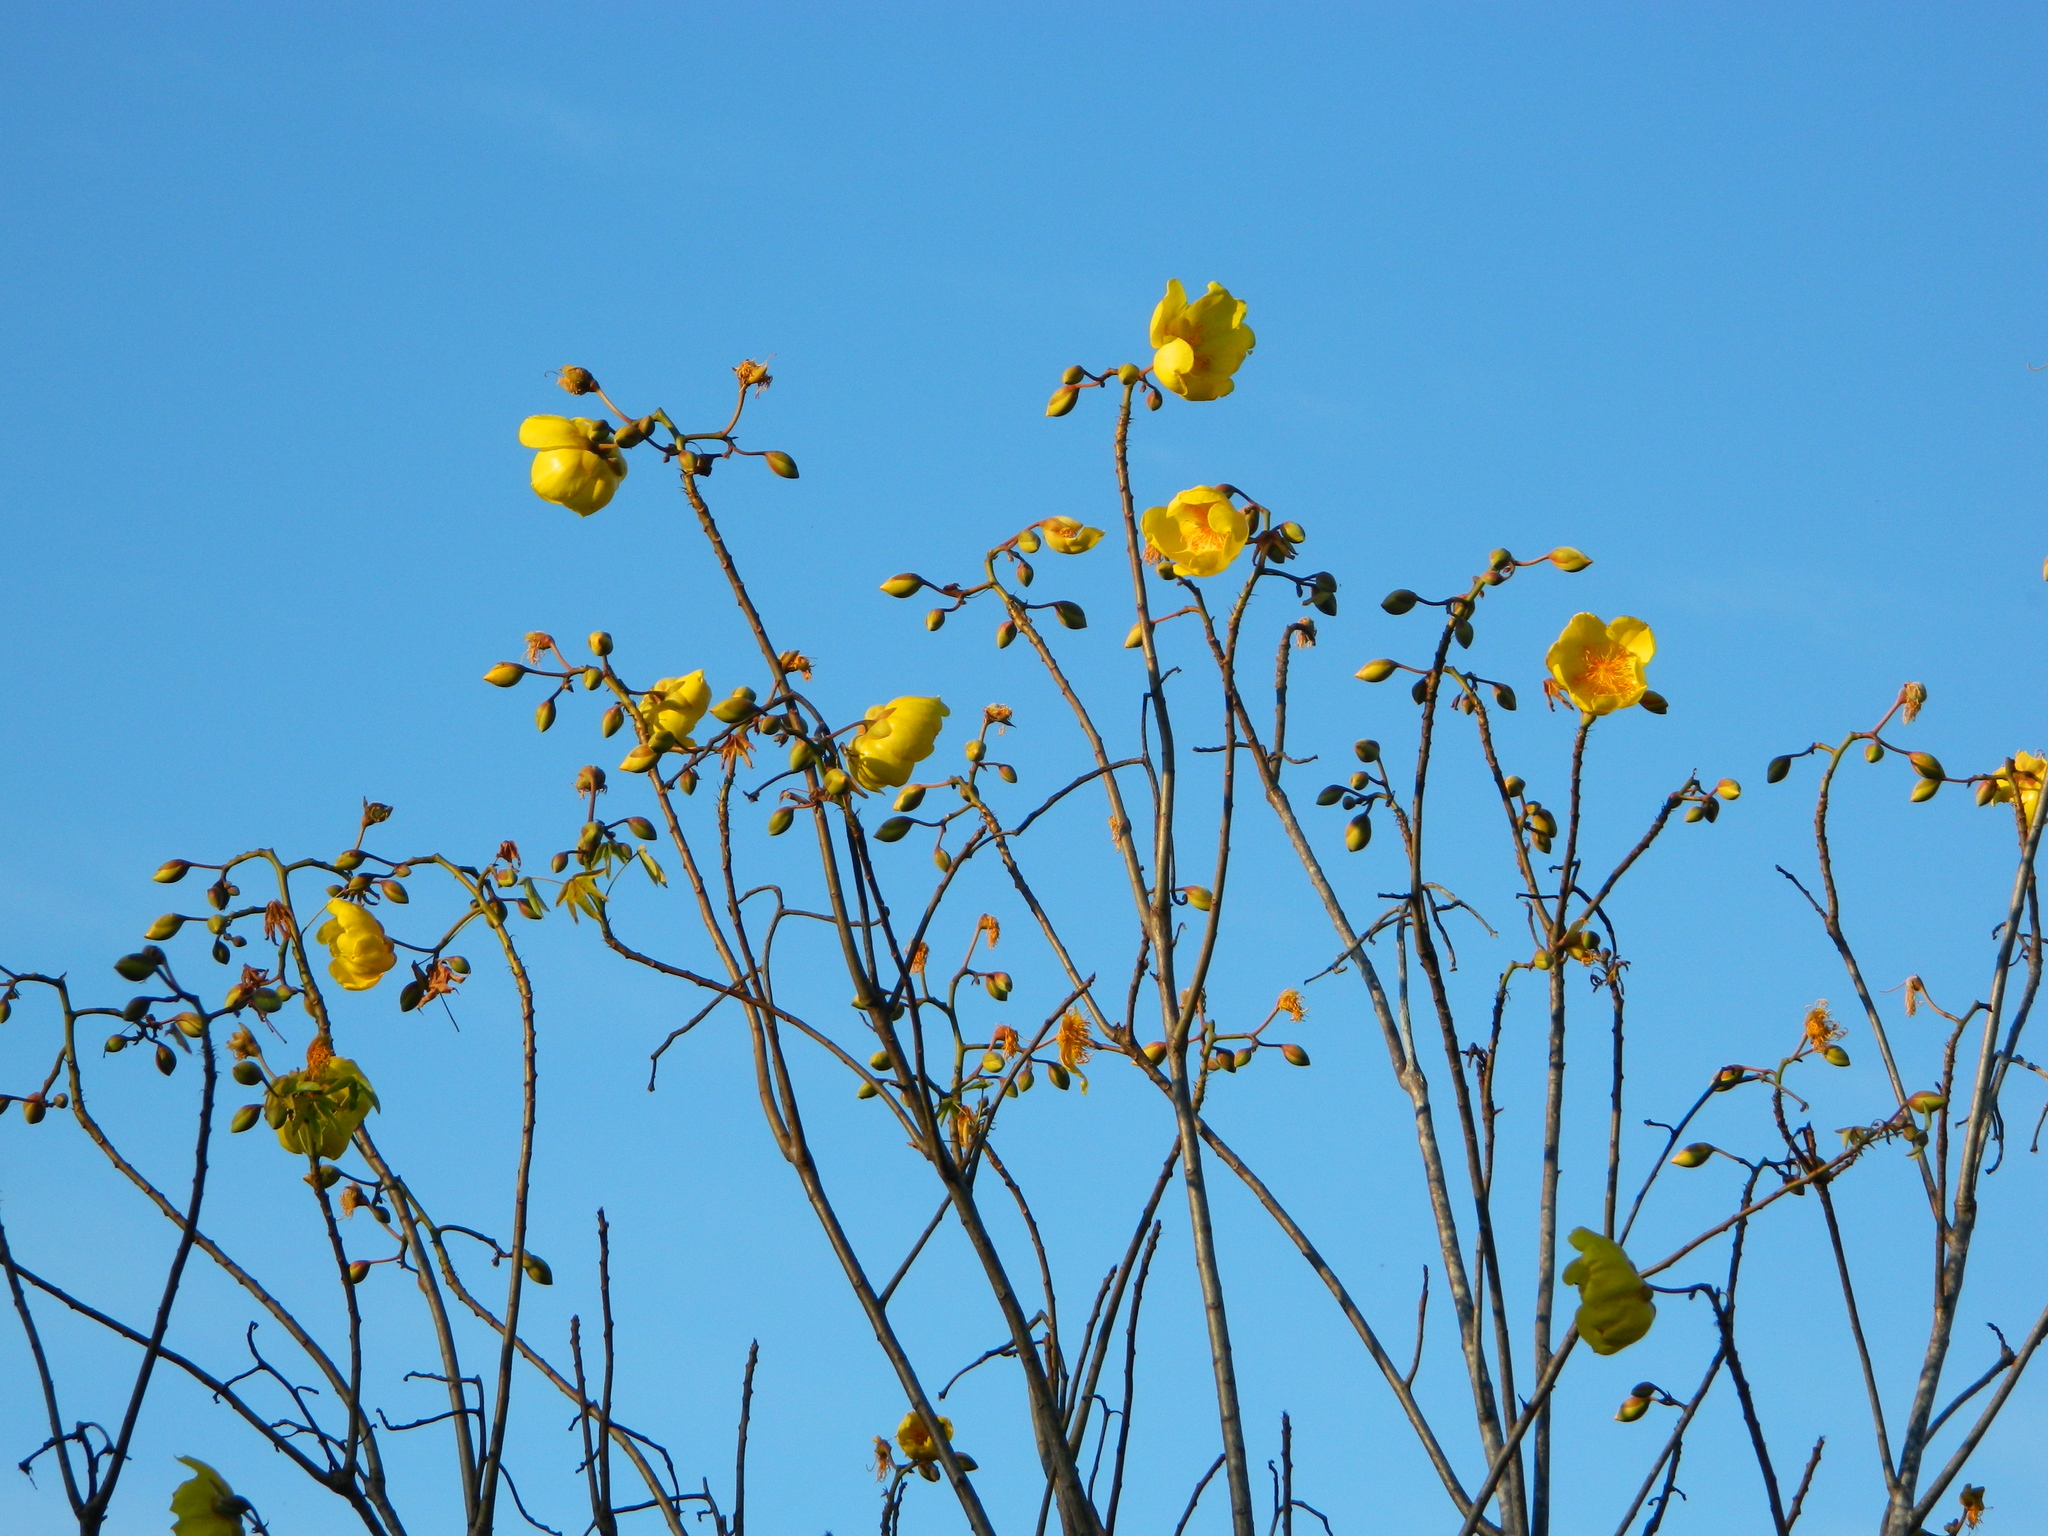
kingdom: Plantae
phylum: Tracheophyta
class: Magnoliopsida
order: Malvales
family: Cochlospermaceae
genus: Cochlospermum
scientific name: Cochlospermum vitifolium
